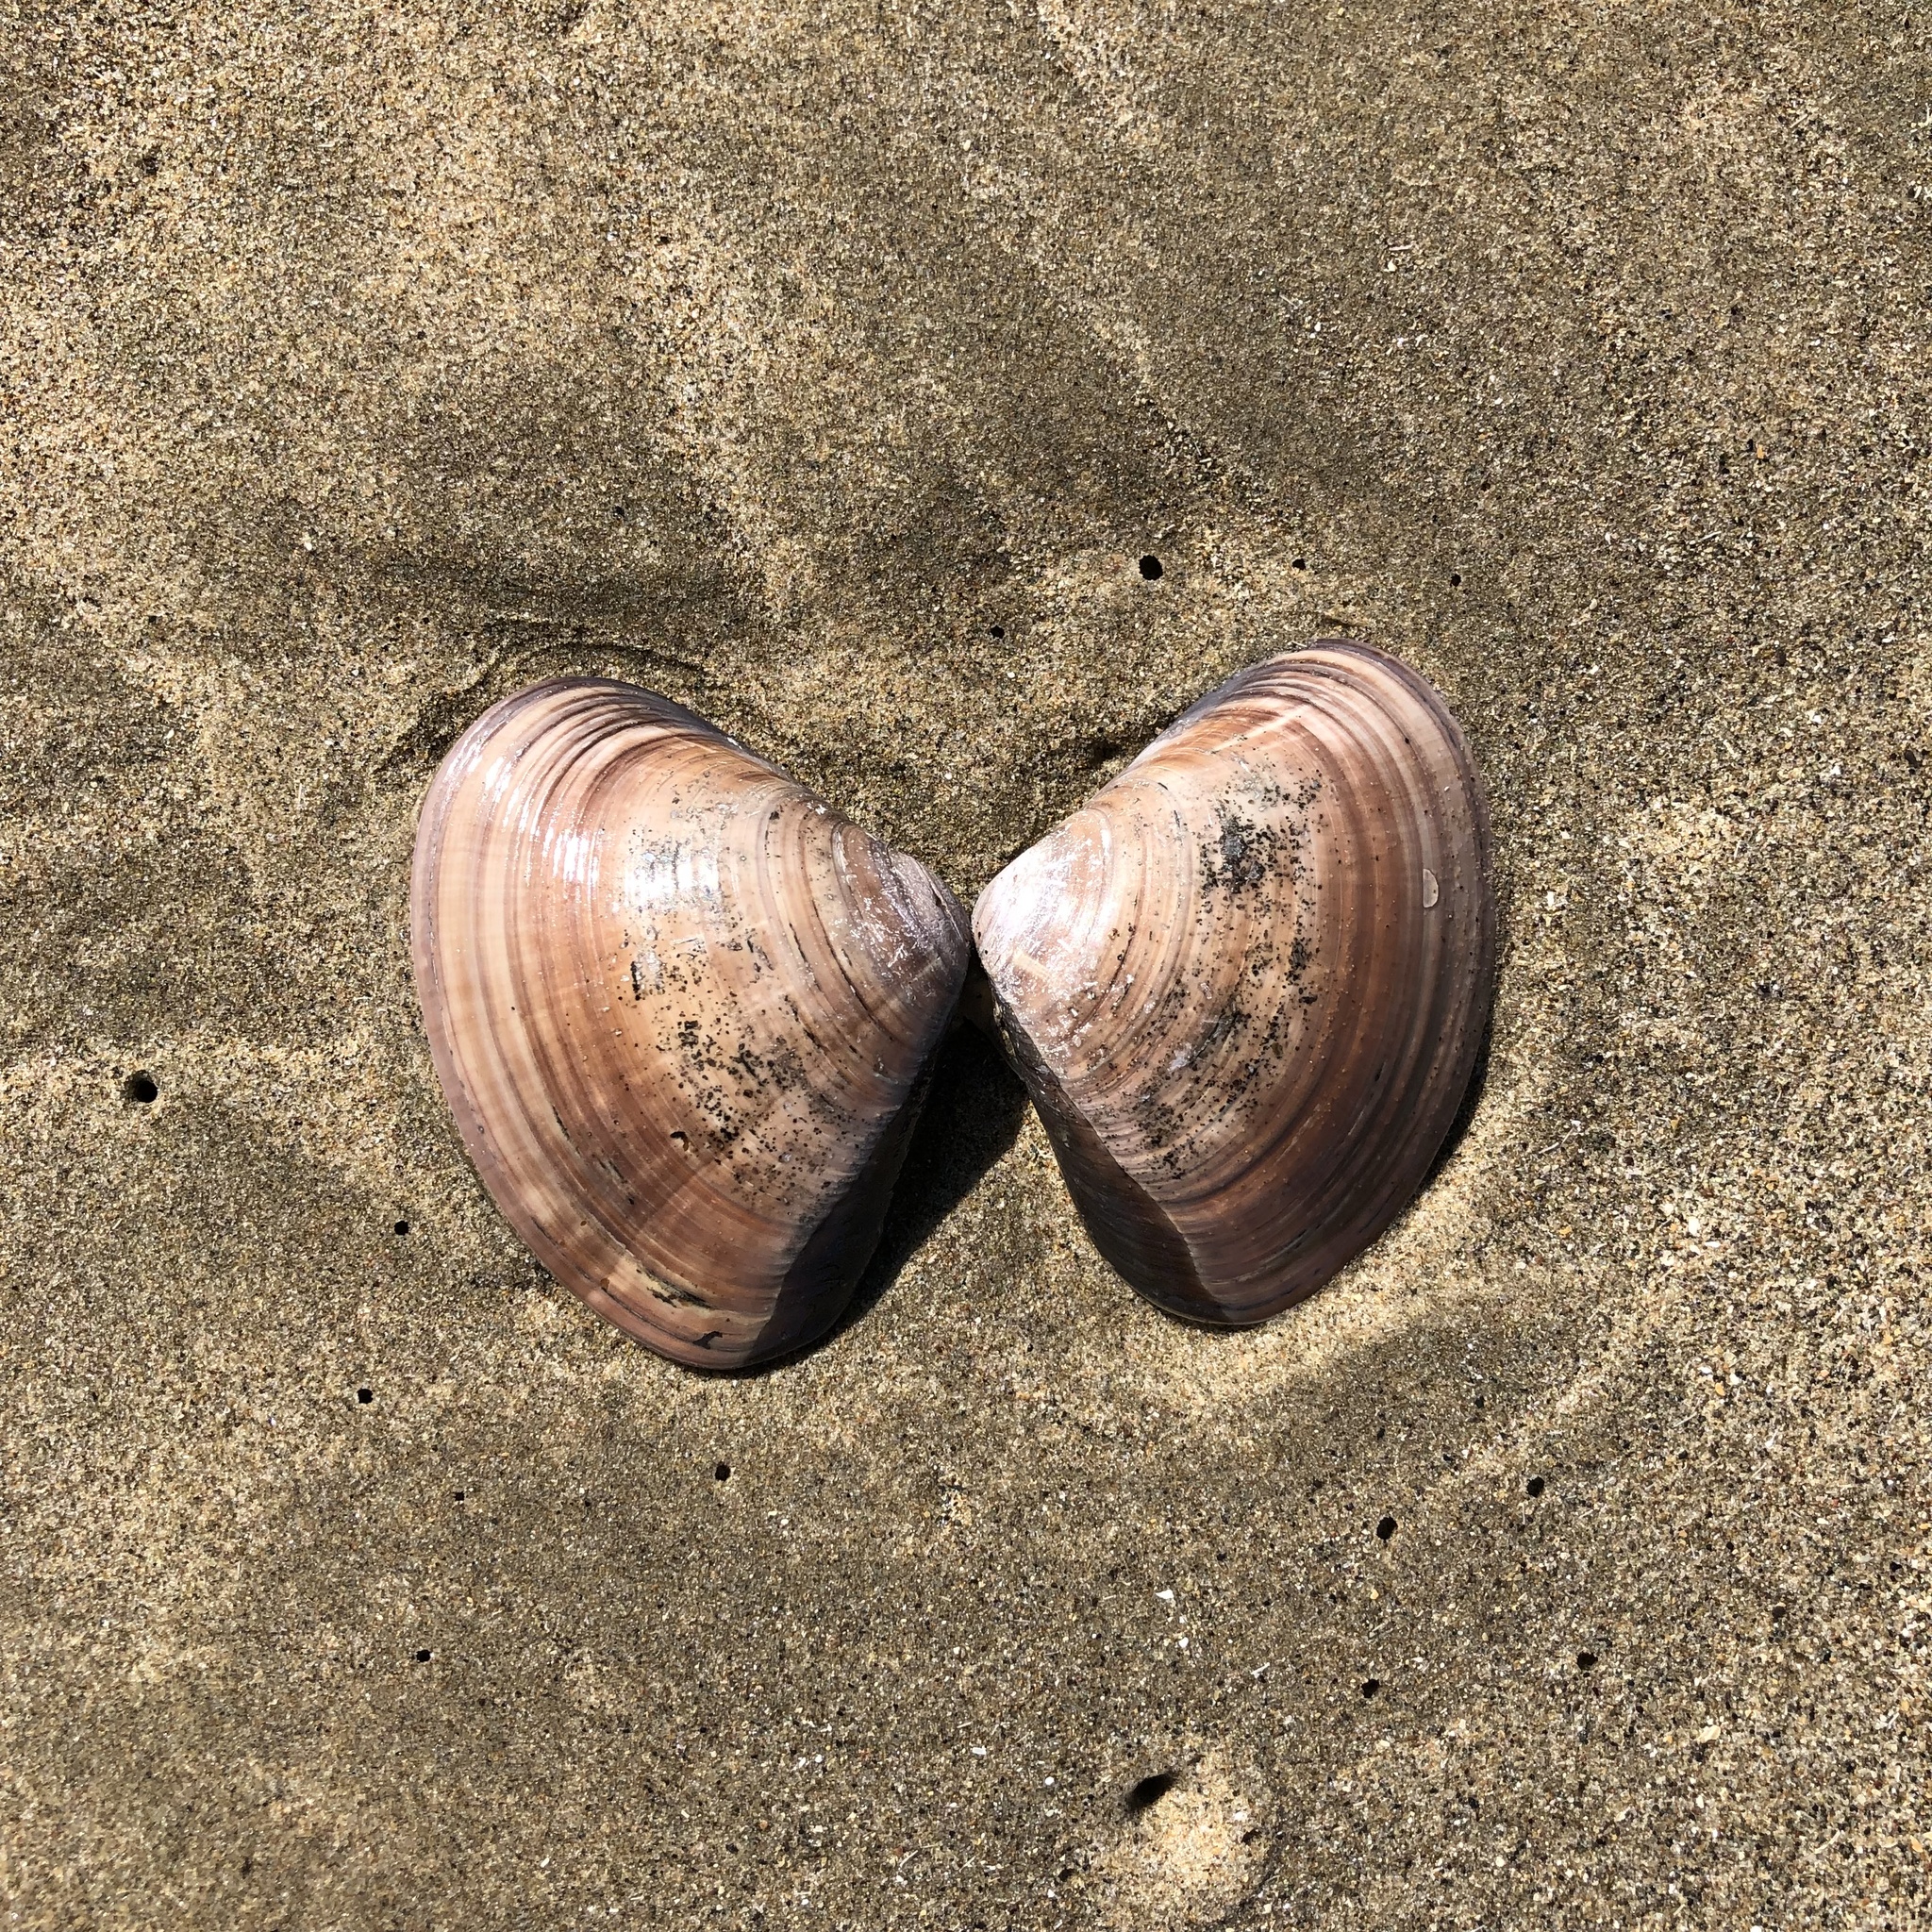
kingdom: Animalia
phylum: Mollusca
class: Bivalvia
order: Venerida
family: Veneridae
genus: Tivela
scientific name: Tivela stultorum
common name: Pismo clam
